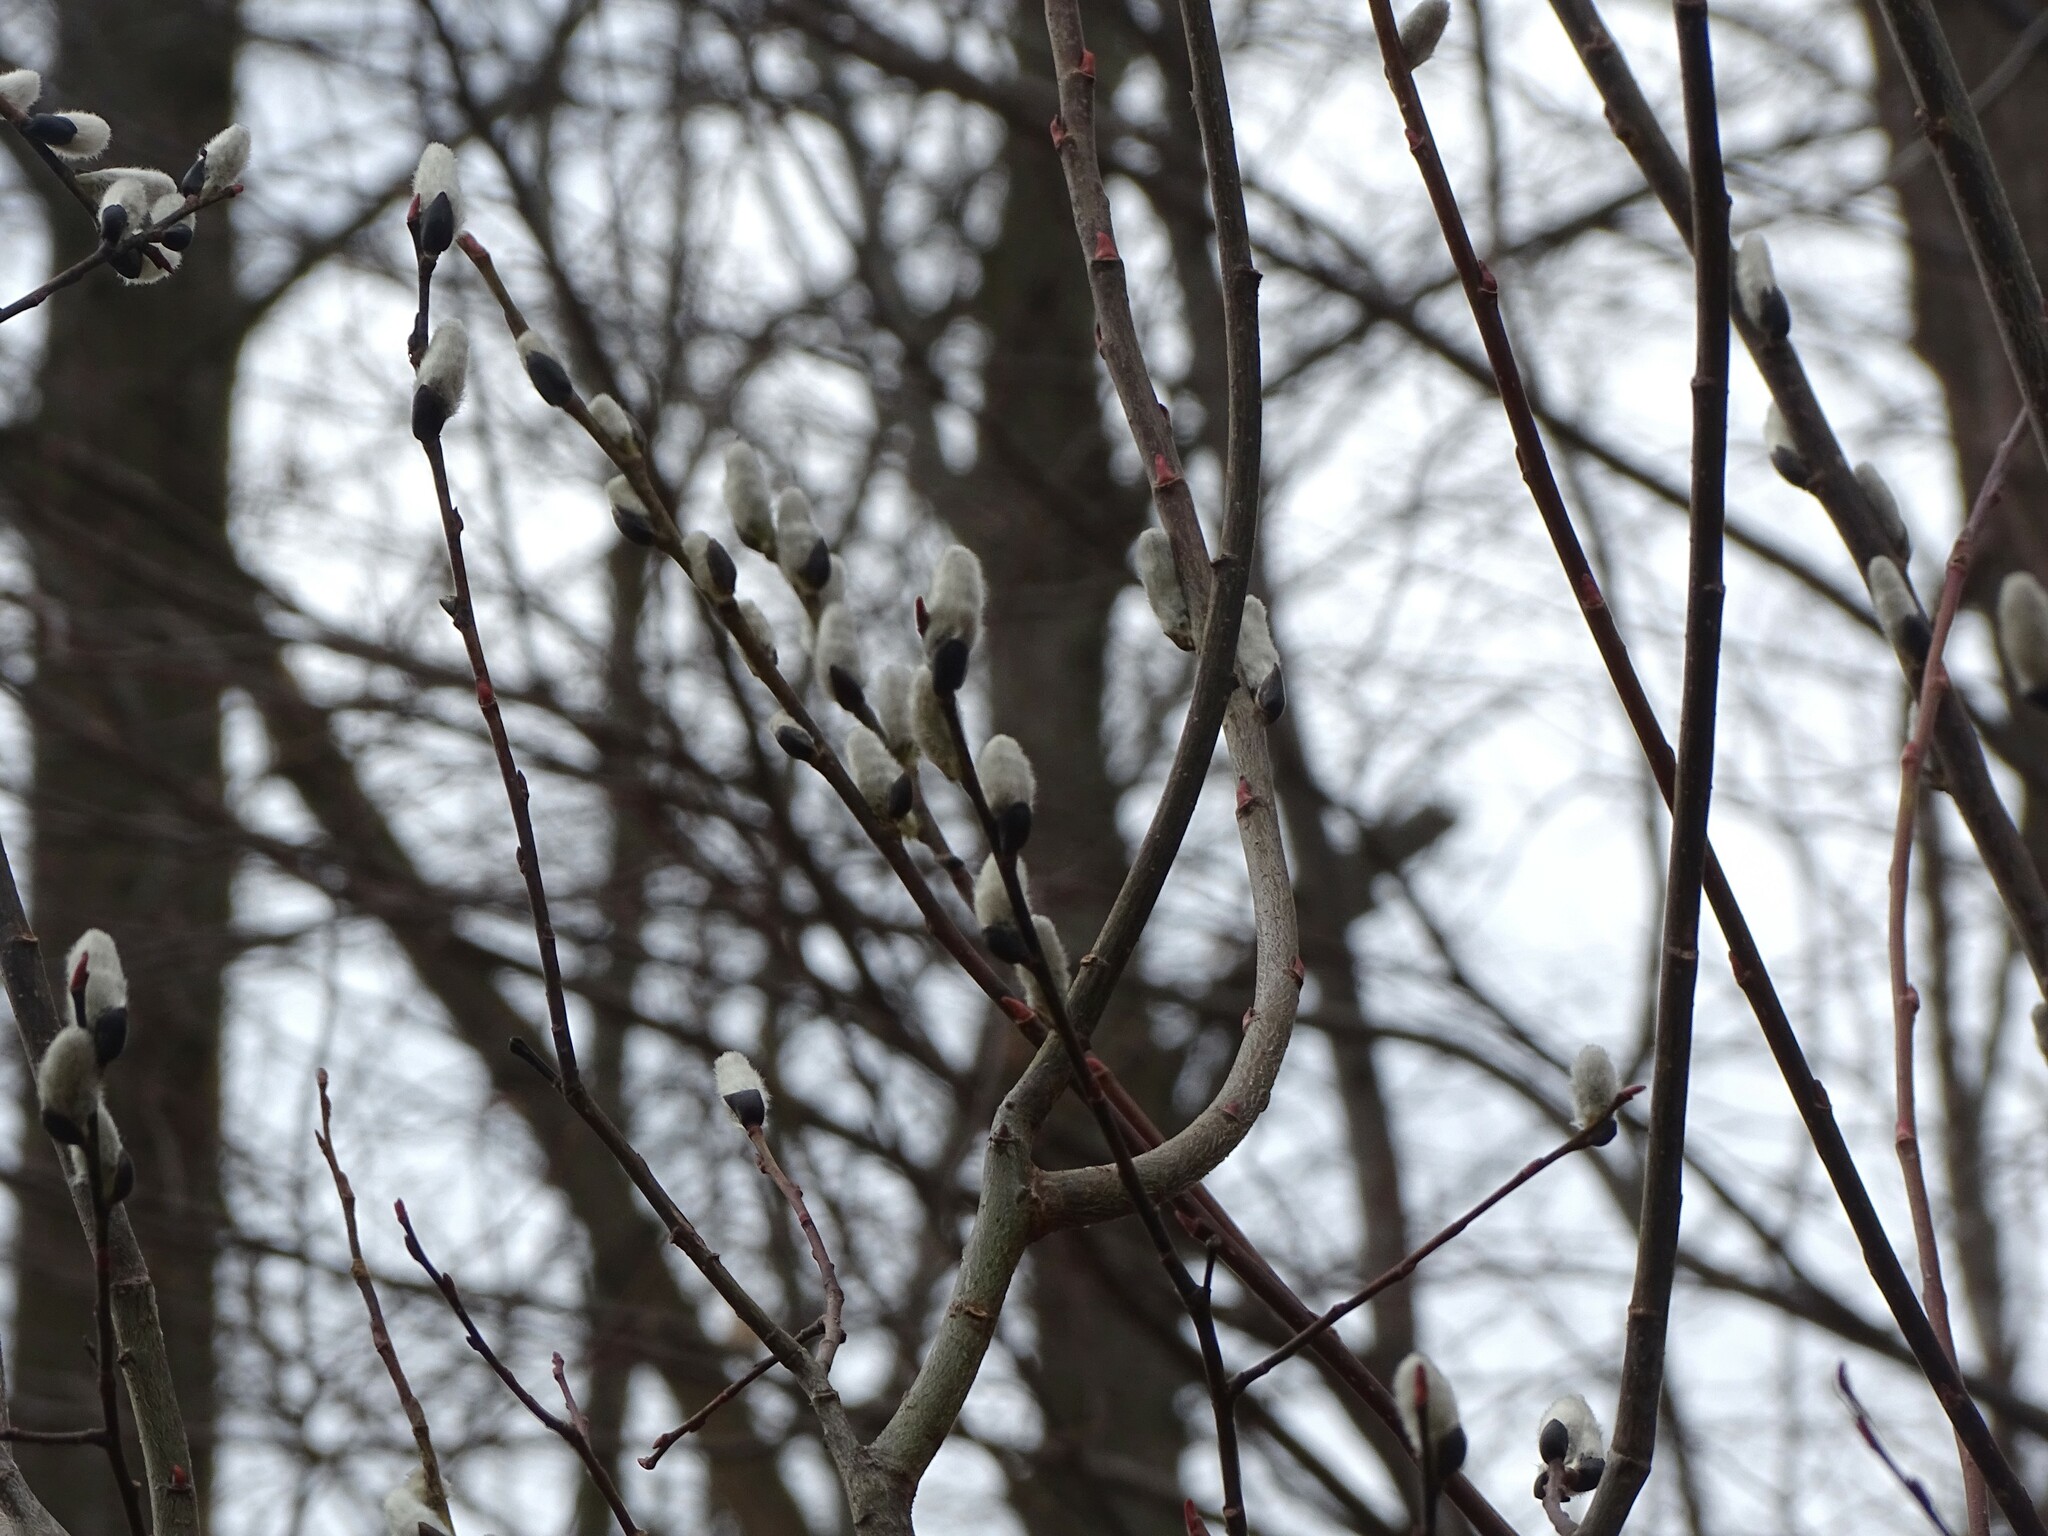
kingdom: Plantae
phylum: Tracheophyta
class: Magnoliopsida
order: Malpighiales
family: Salicaceae
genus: Salix
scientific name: Salix discolor
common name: Glaucous willow
